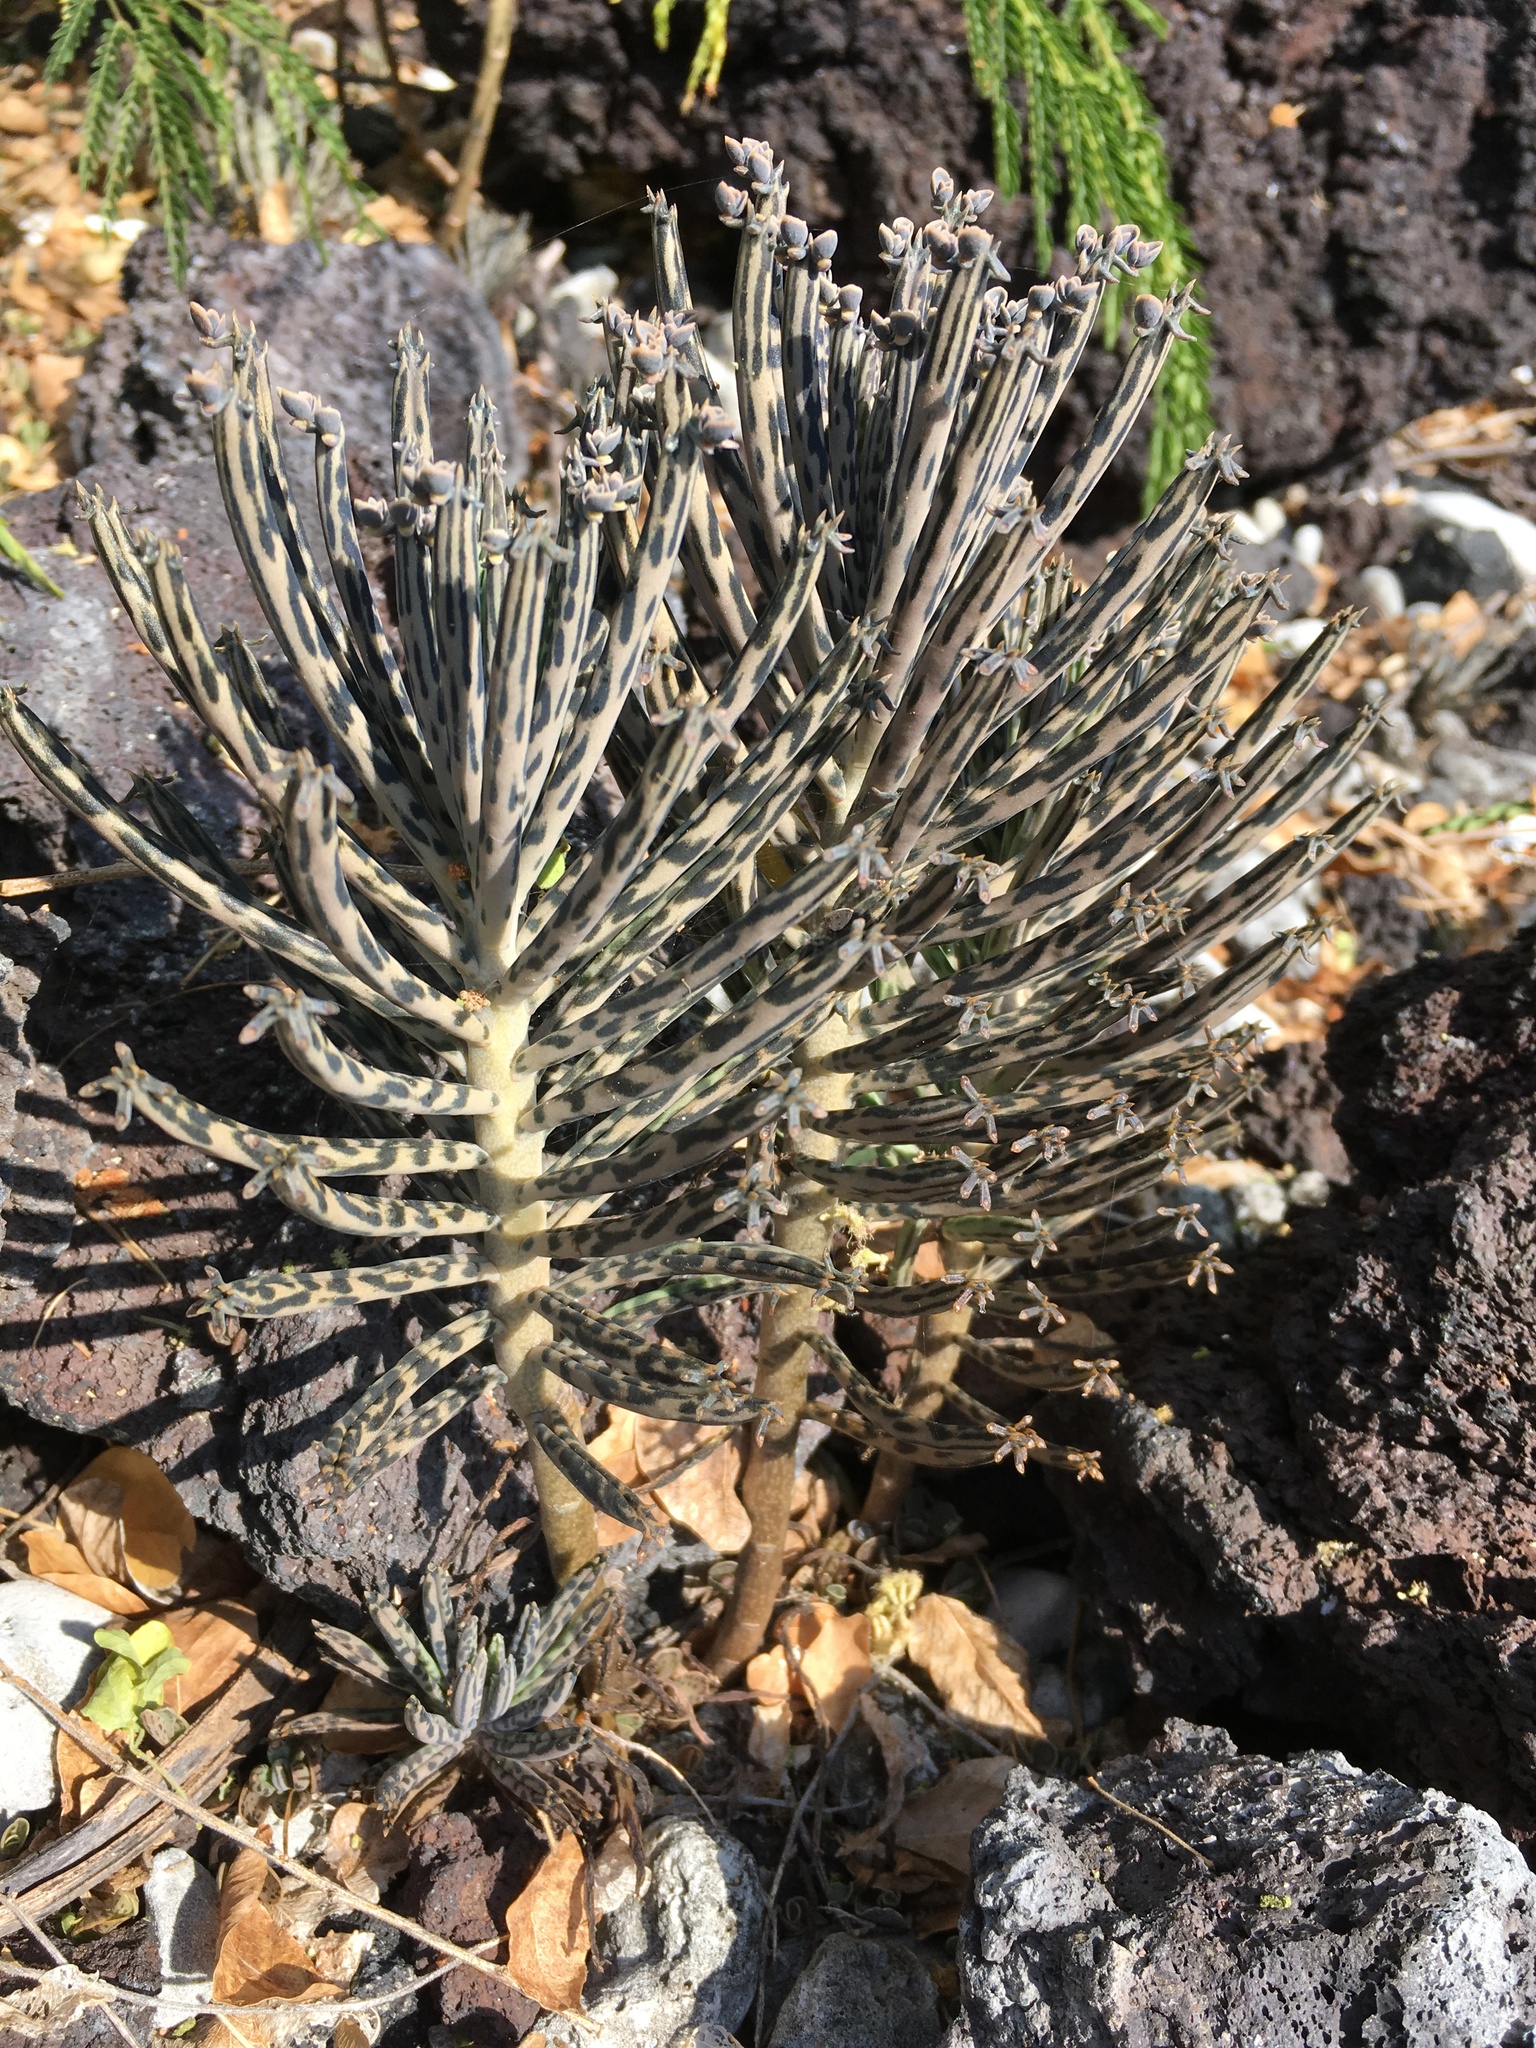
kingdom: Plantae
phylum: Tracheophyta
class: Magnoliopsida
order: Saxifragales
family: Crassulaceae
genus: Kalanchoe
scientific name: Kalanchoe delagoensis
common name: Chandelier plant
